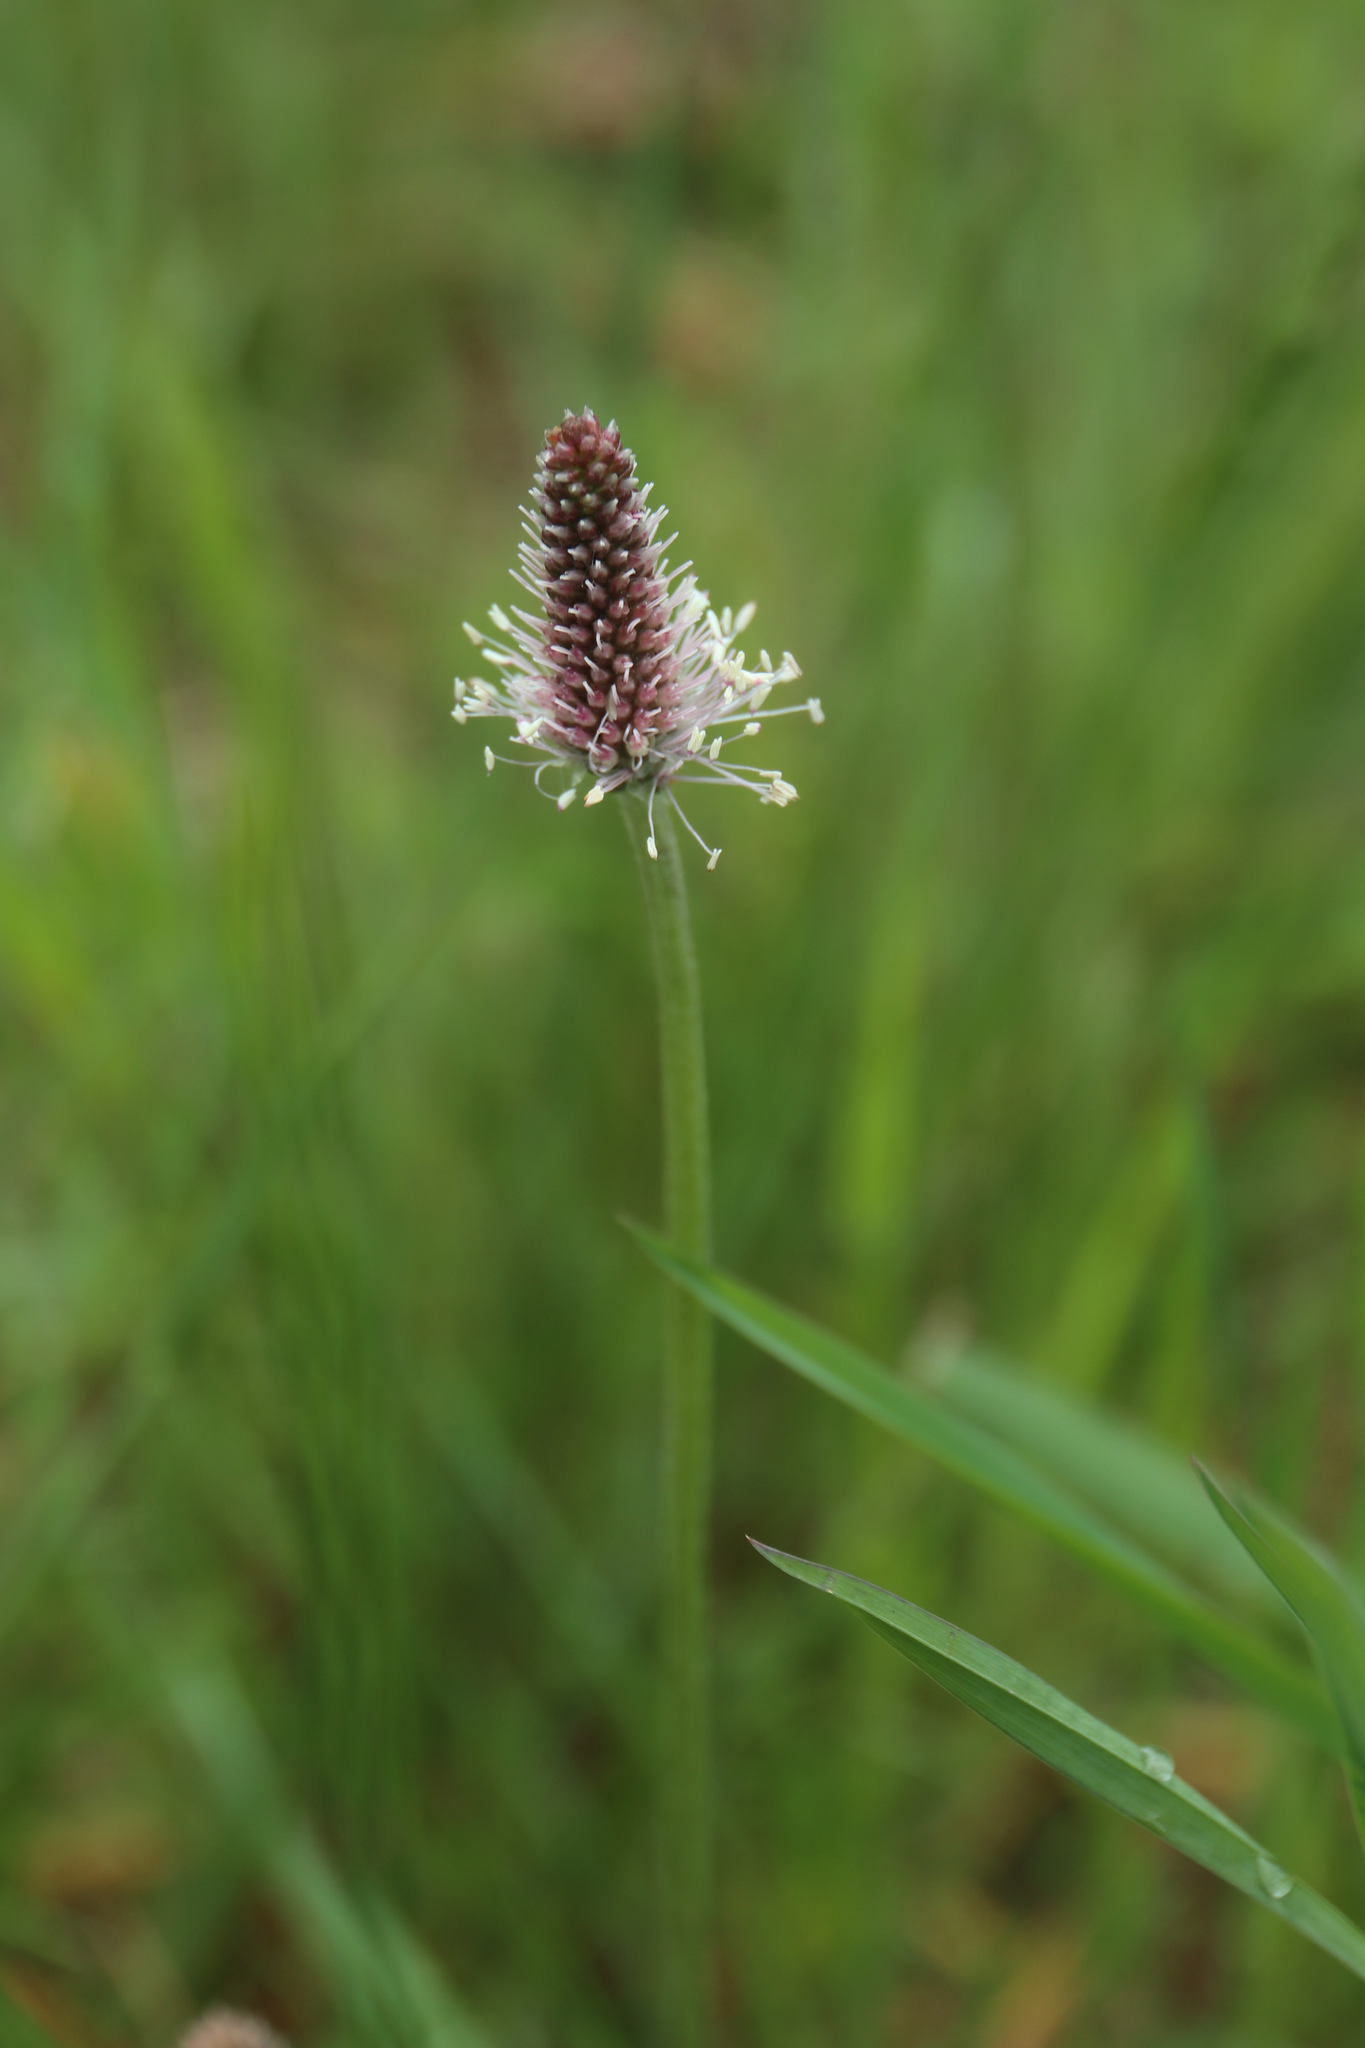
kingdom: Plantae
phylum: Tracheophyta
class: Magnoliopsida
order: Lamiales
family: Plantaginaceae
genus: Plantago
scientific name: Plantago media
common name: Hoary plantain
